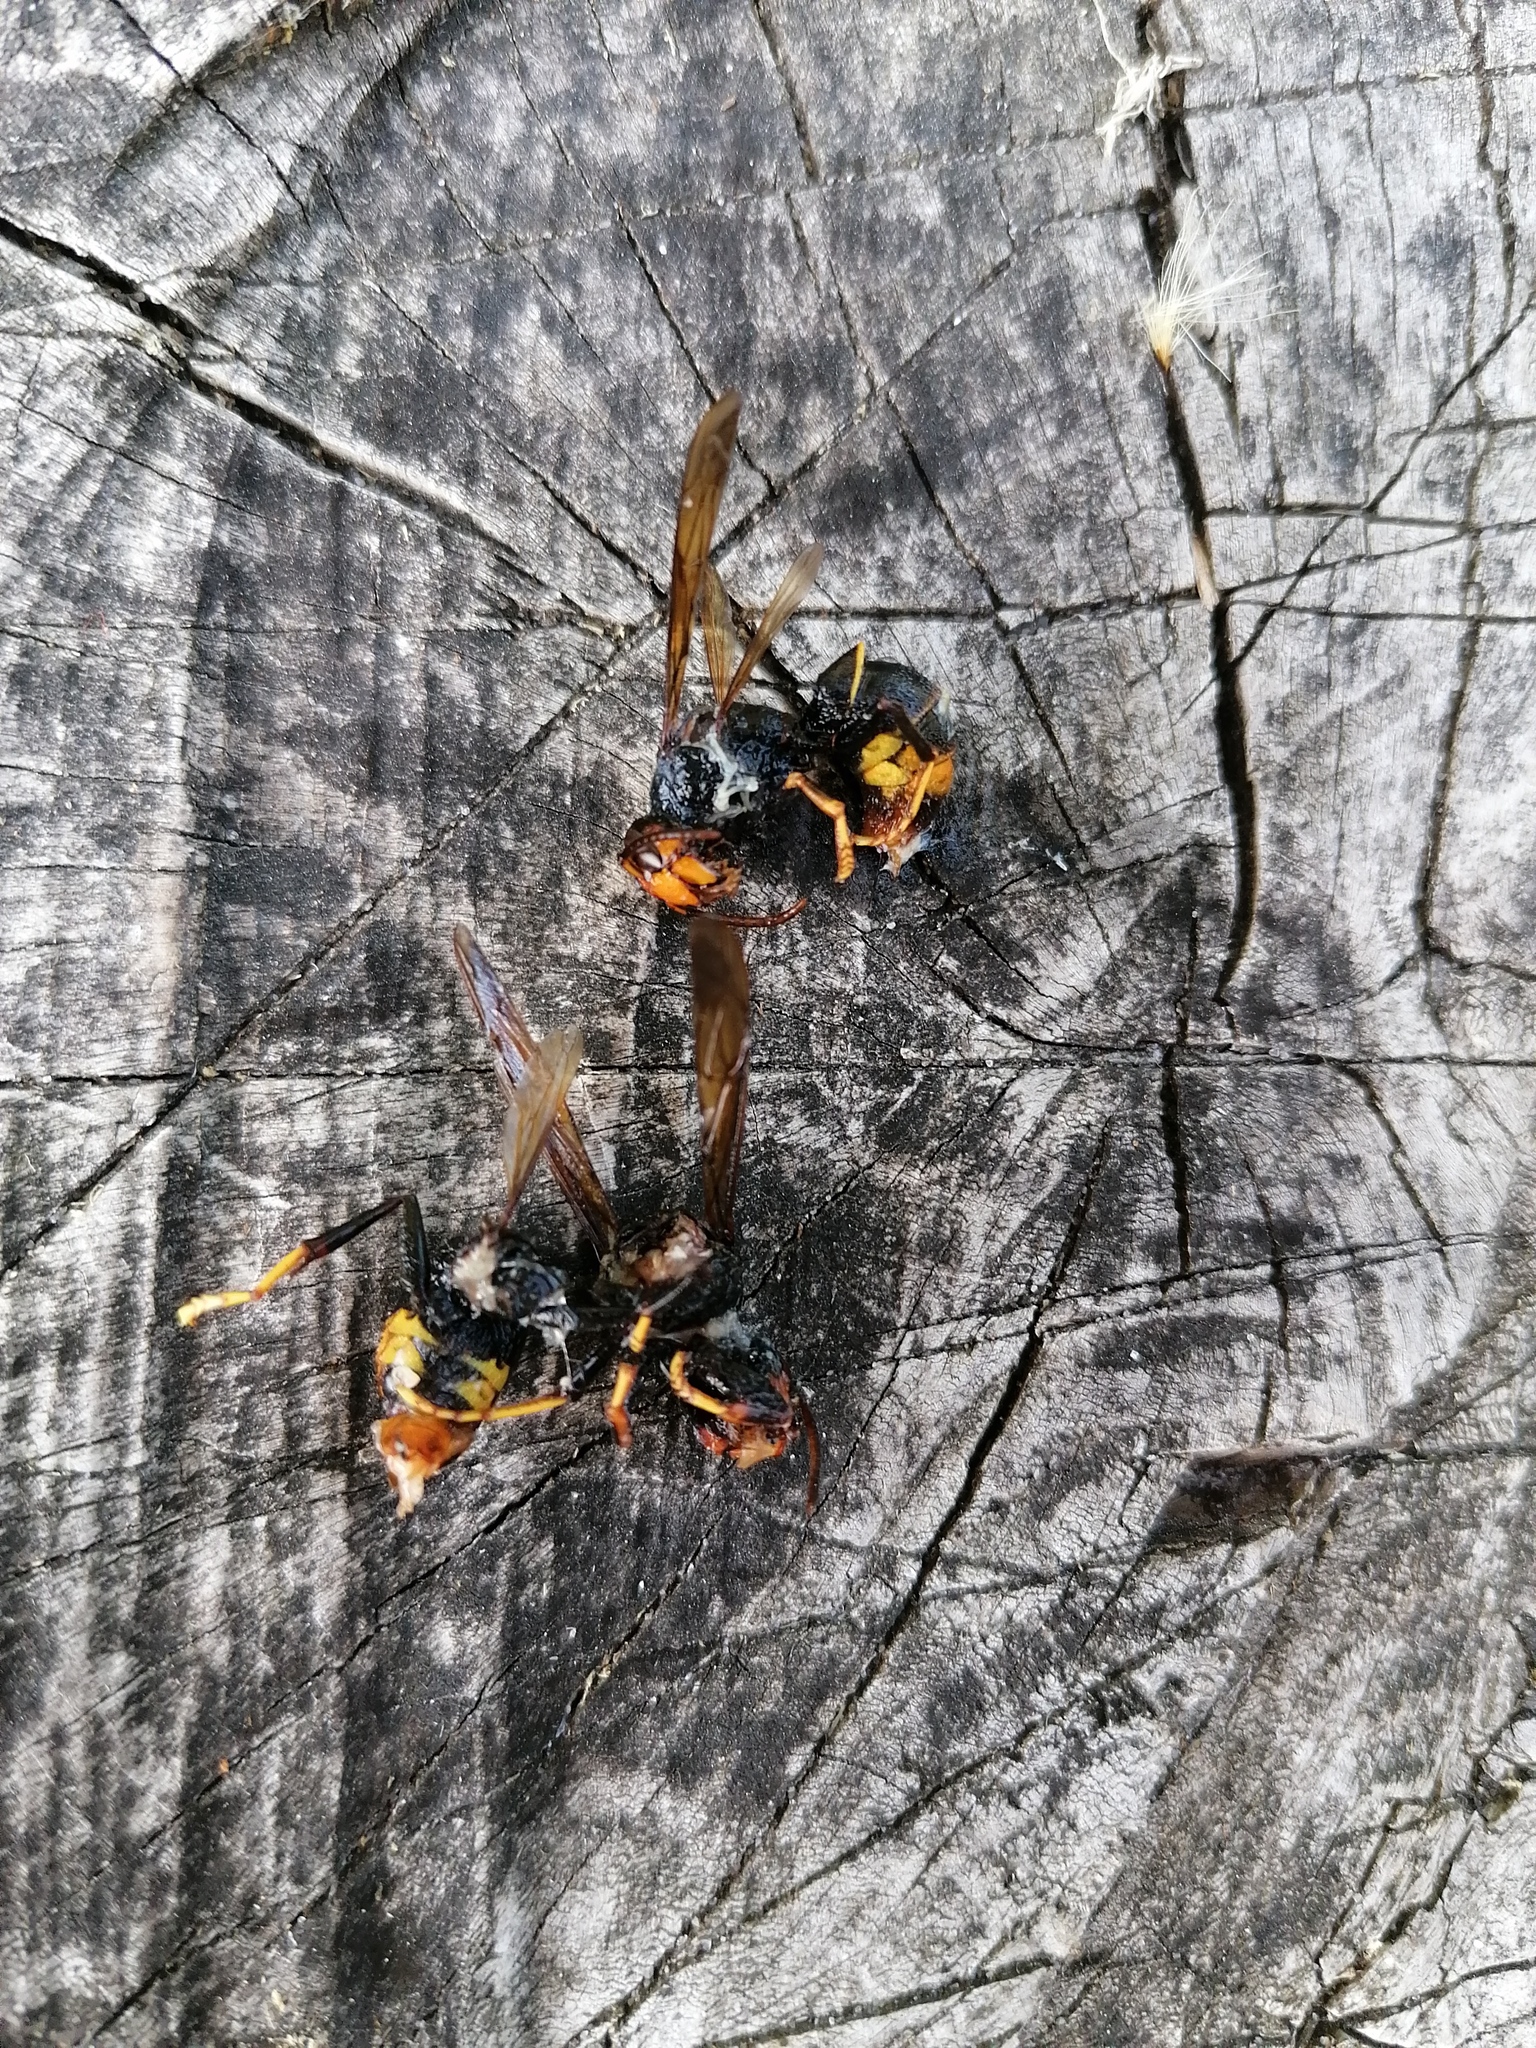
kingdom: Animalia
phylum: Arthropoda
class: Insecta
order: Hymenoptera
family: Vespidae
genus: Vespa
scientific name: Vespa velutina
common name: Asian hornet
